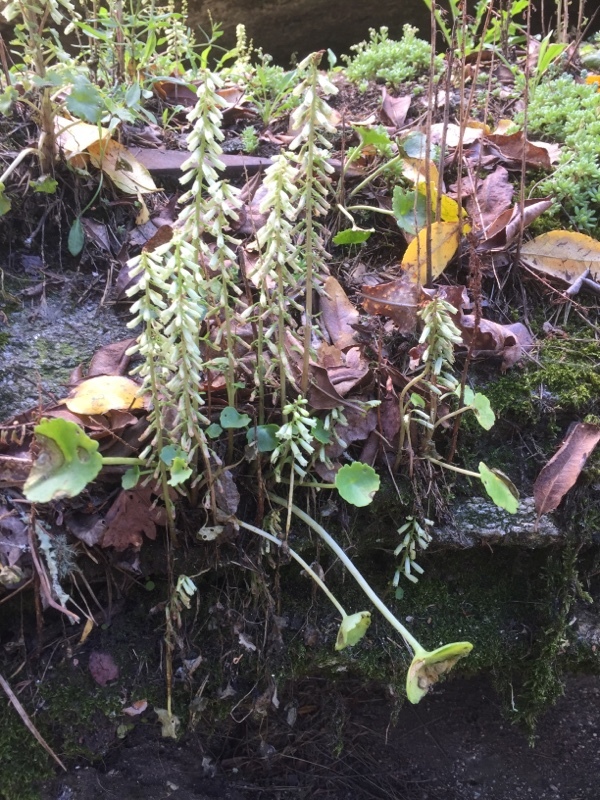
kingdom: Plantae
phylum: Tracheophyta
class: Magnoliopsida
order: Saxifragales
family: Crassulaceae
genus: Umbilicus
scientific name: Umbilicus rupestris
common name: Navelwort
